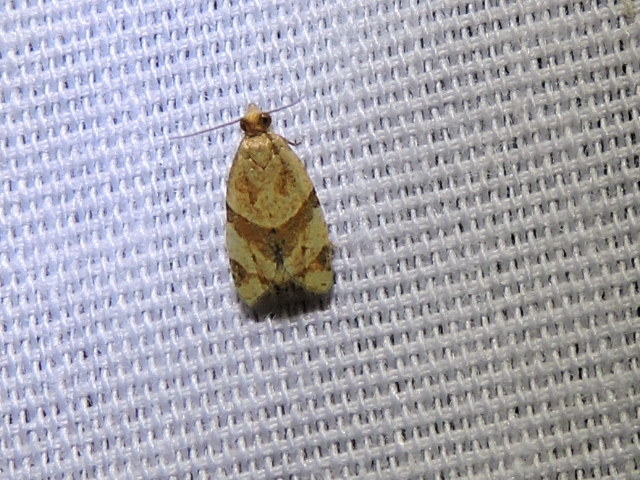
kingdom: Animalia
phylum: Arthropoda
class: Insecta
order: Lepidoptera
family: Tortricidae
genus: Clepsis
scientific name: Clepsis peritana
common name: Garden tortrix
